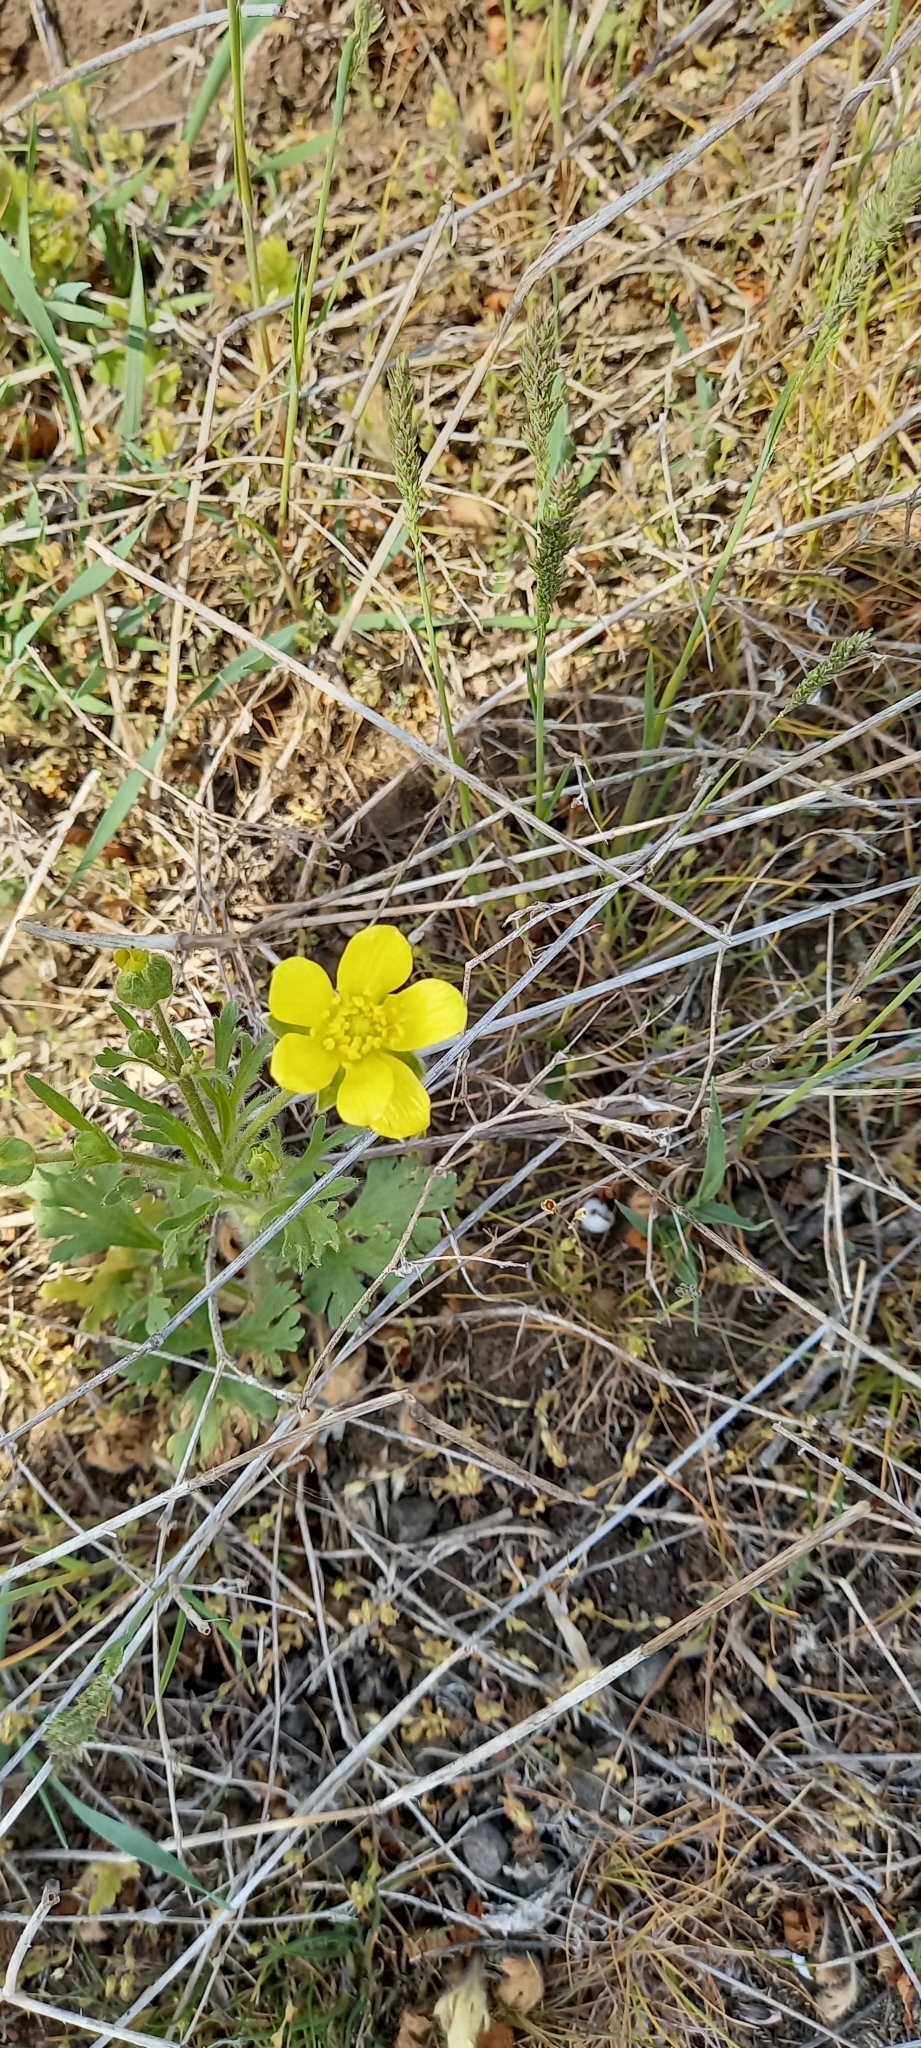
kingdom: Plantae
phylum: Tracheophyta
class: Magnoliopsida
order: Ranunculales
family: Ranunculaceae
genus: Ranunculus
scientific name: Ranunculus oxyspermus
